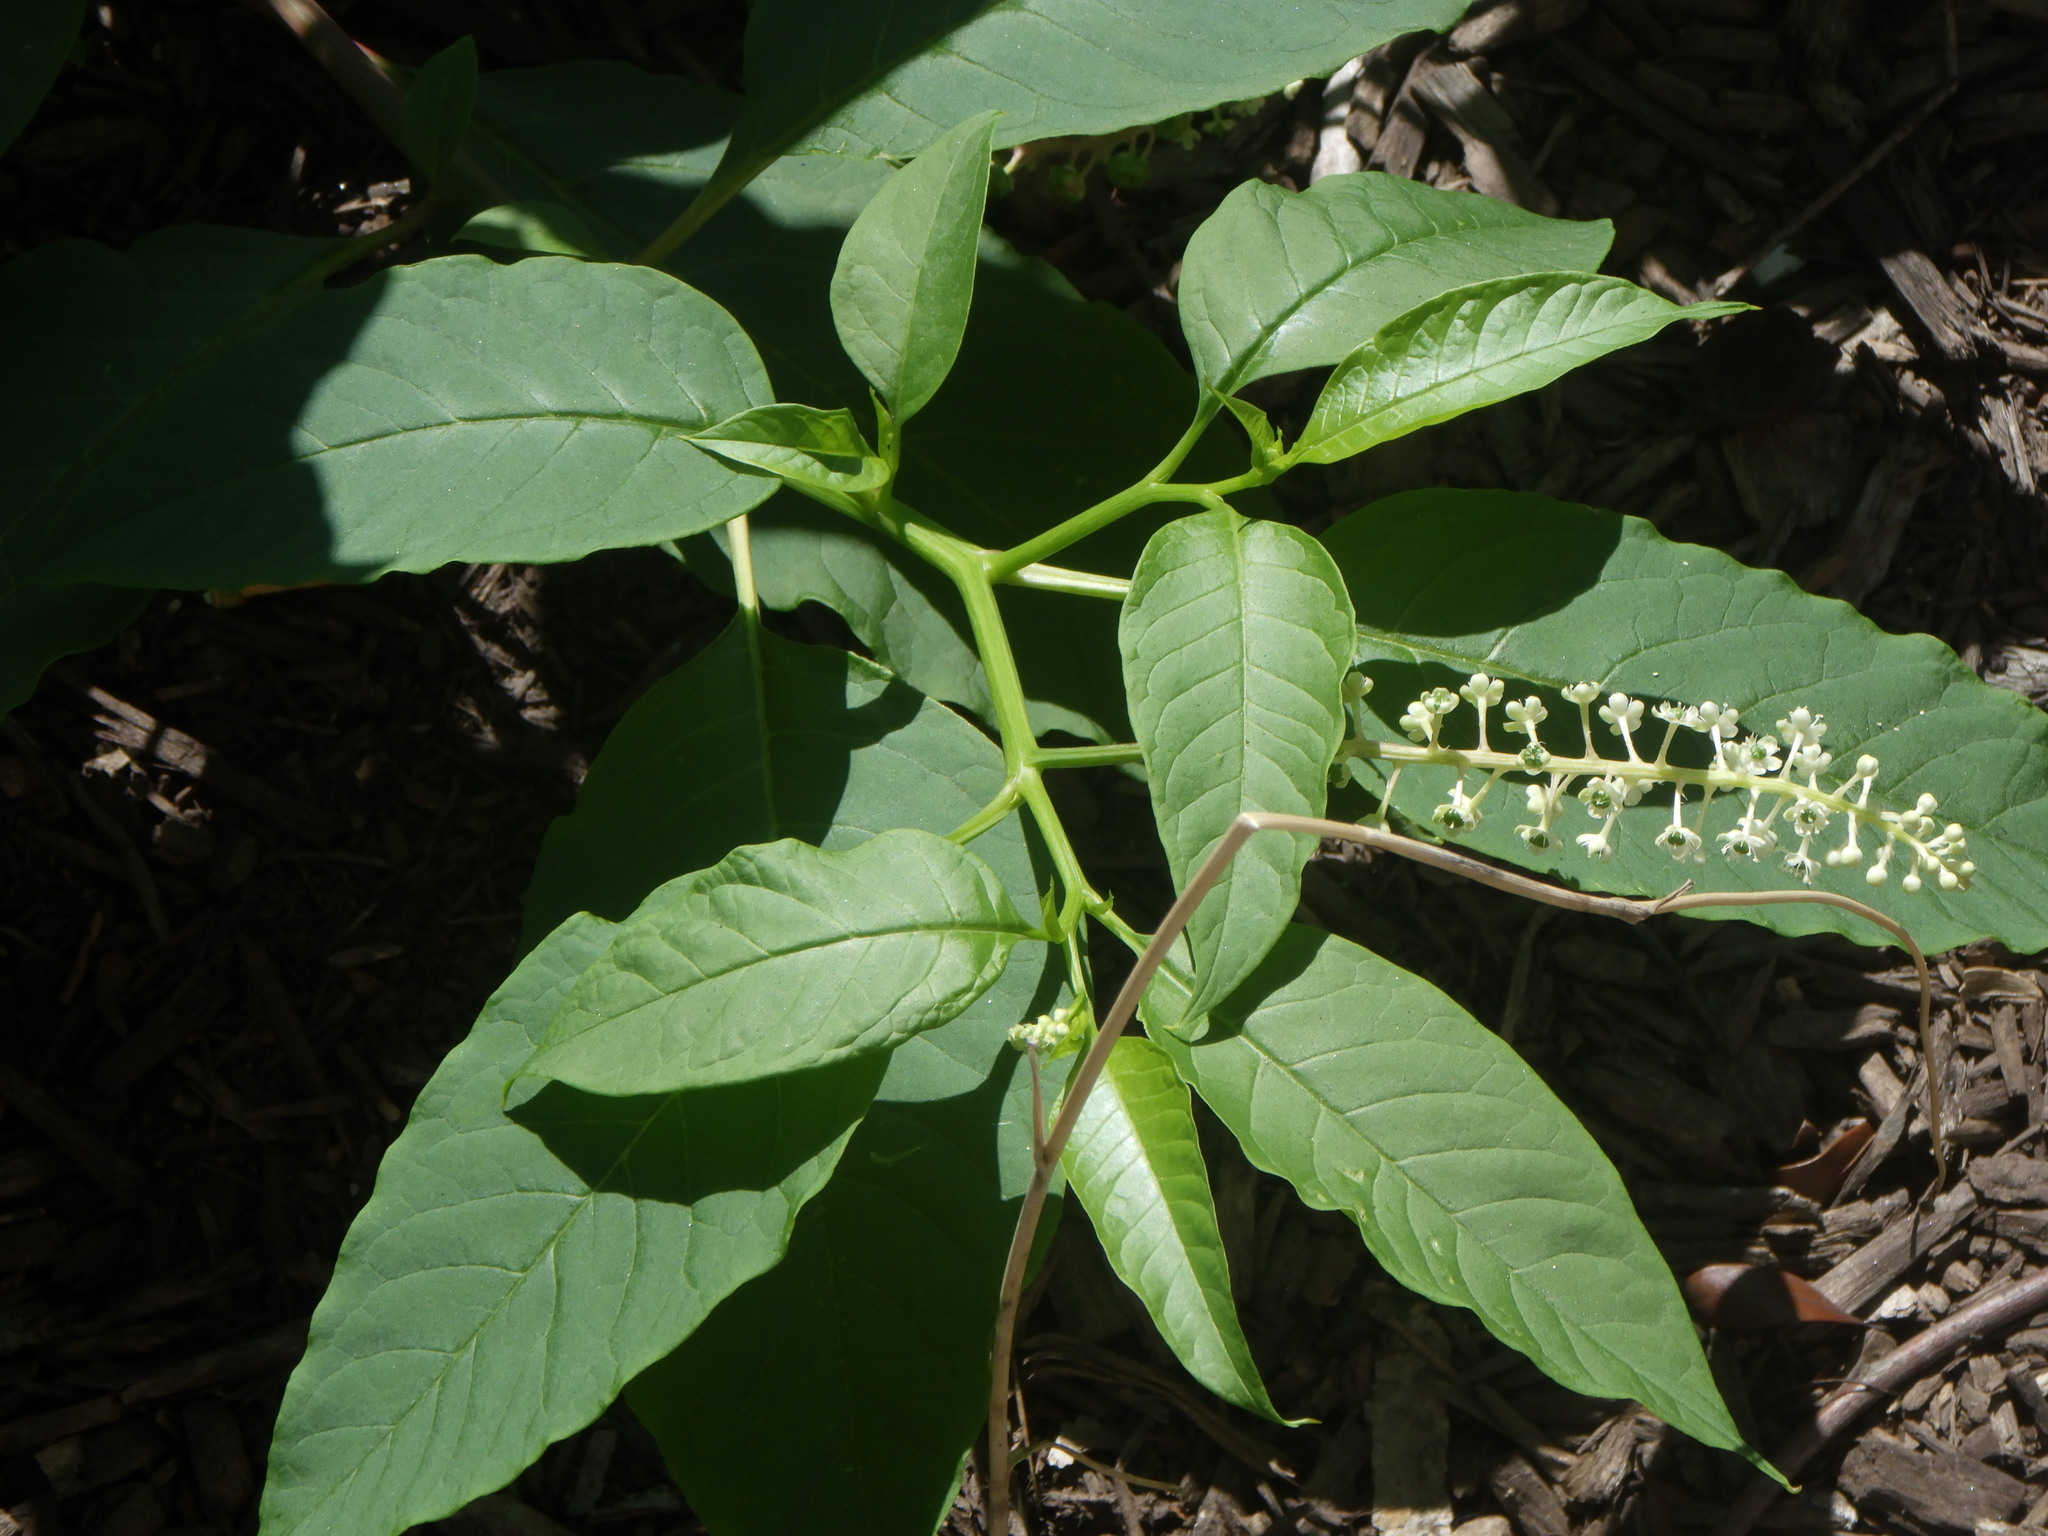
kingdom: Plantae
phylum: Tracheophyta
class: Magnoliopsida
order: Caryophyllales
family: Phytolaccaceae
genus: Phytolacca
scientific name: Phytolacca americana
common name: American pokeweed
